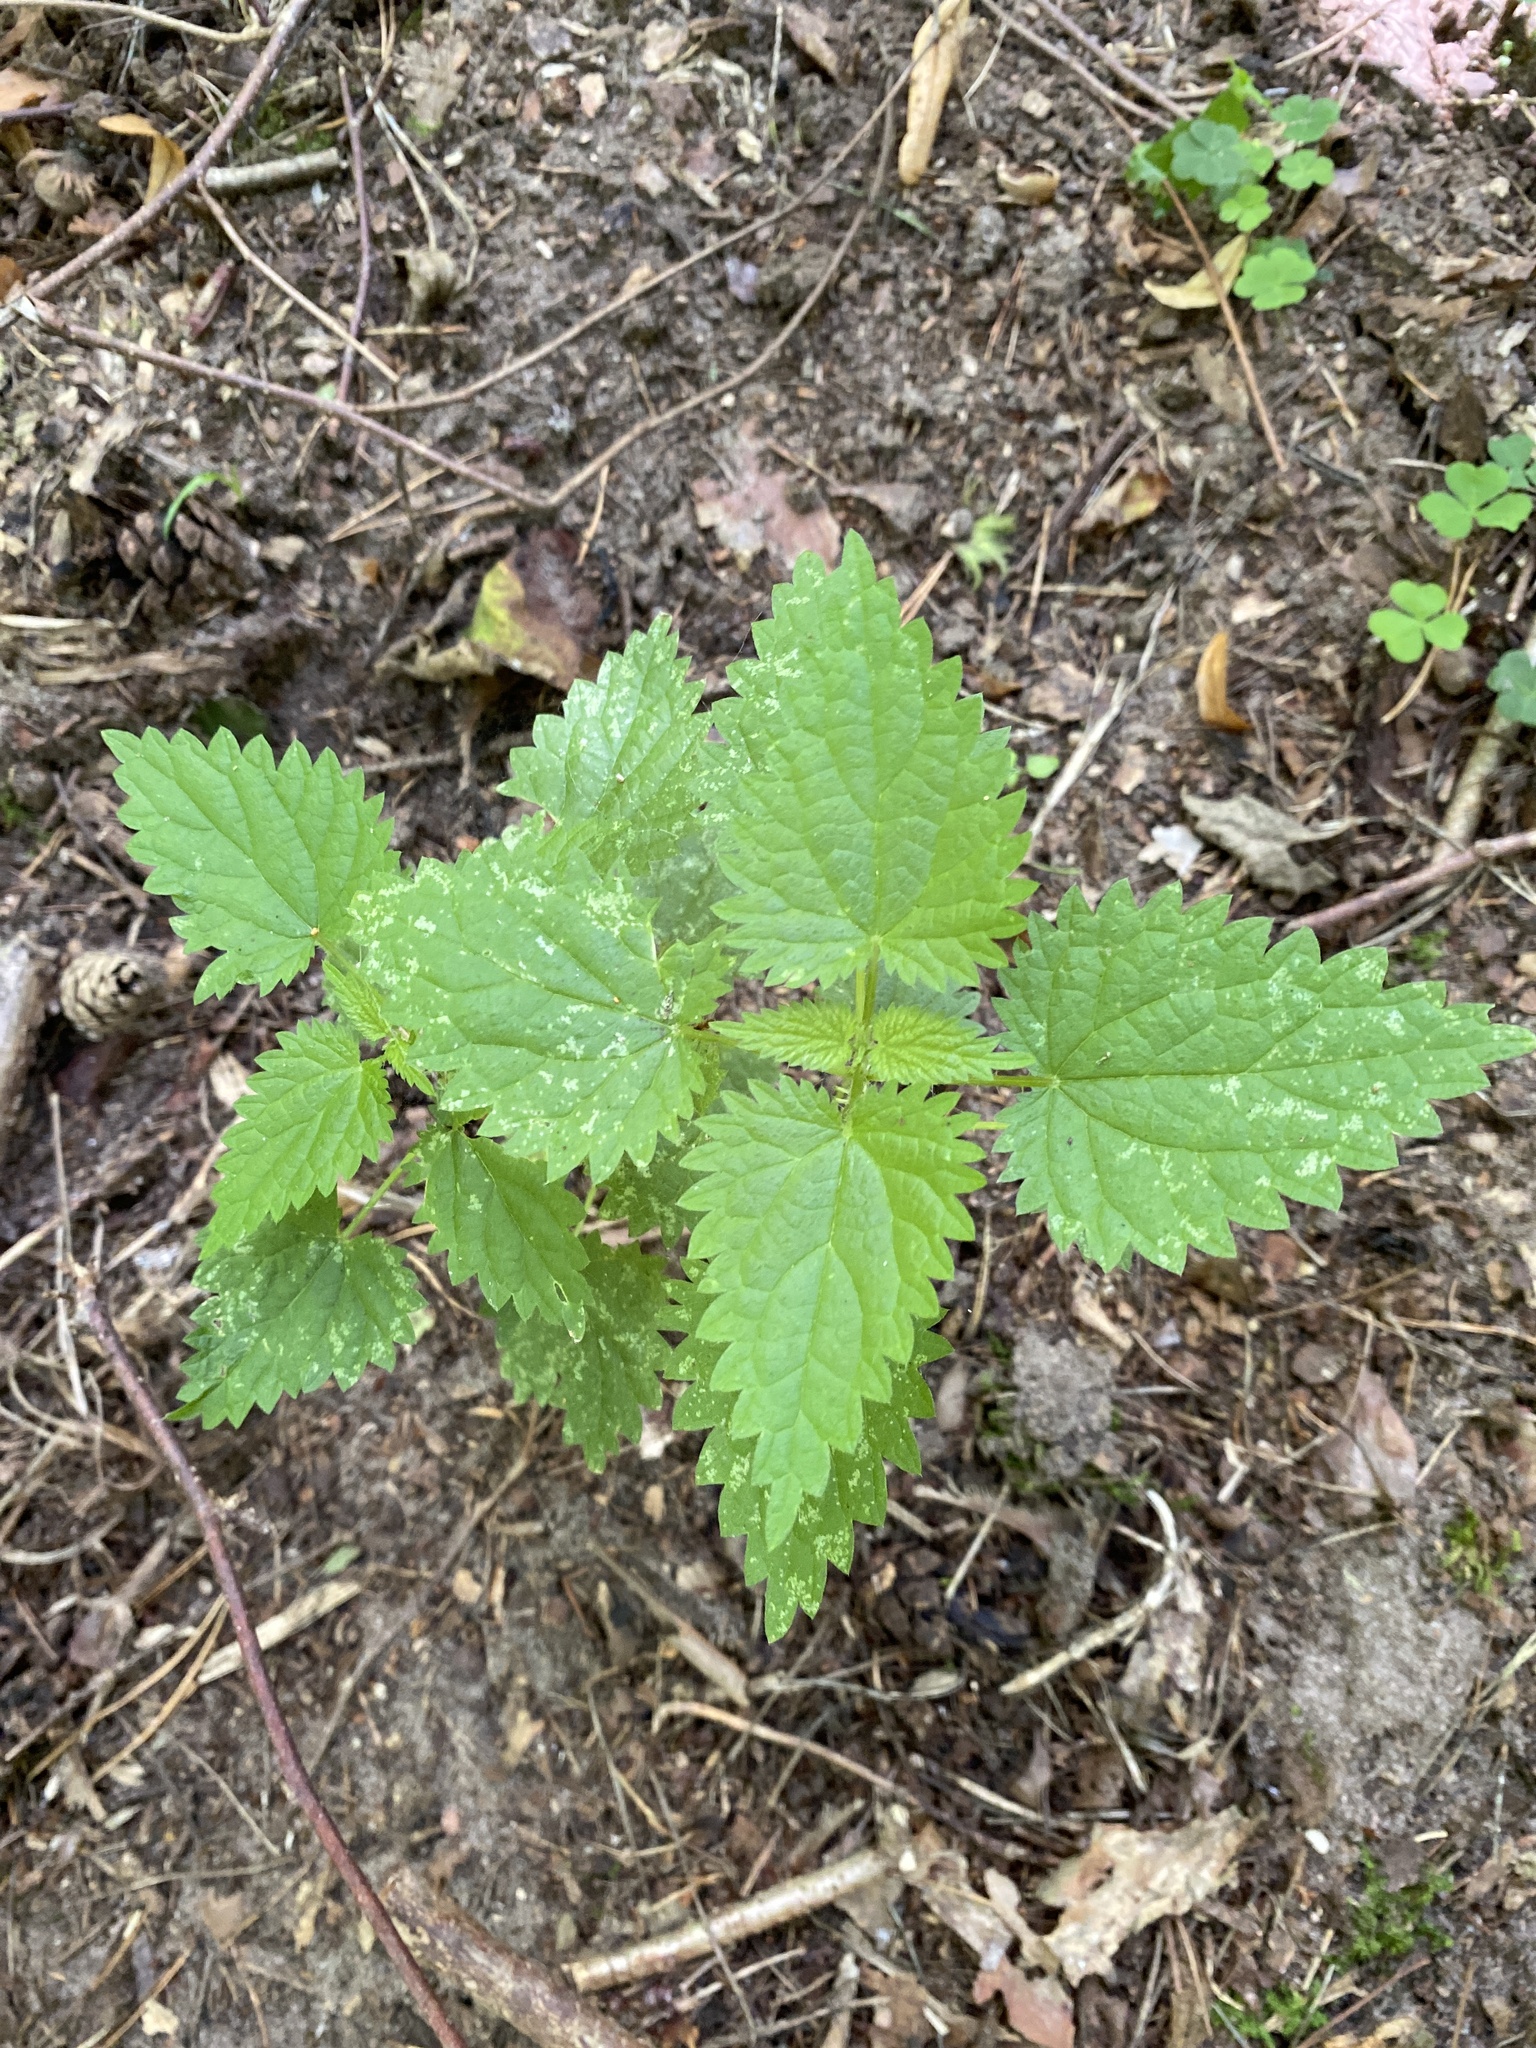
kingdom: Plantae
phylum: Tracheophyta
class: Magnoliopsida
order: Rosales
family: Urticaceae
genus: Urtica
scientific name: Urtica dioica
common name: Common nettle
